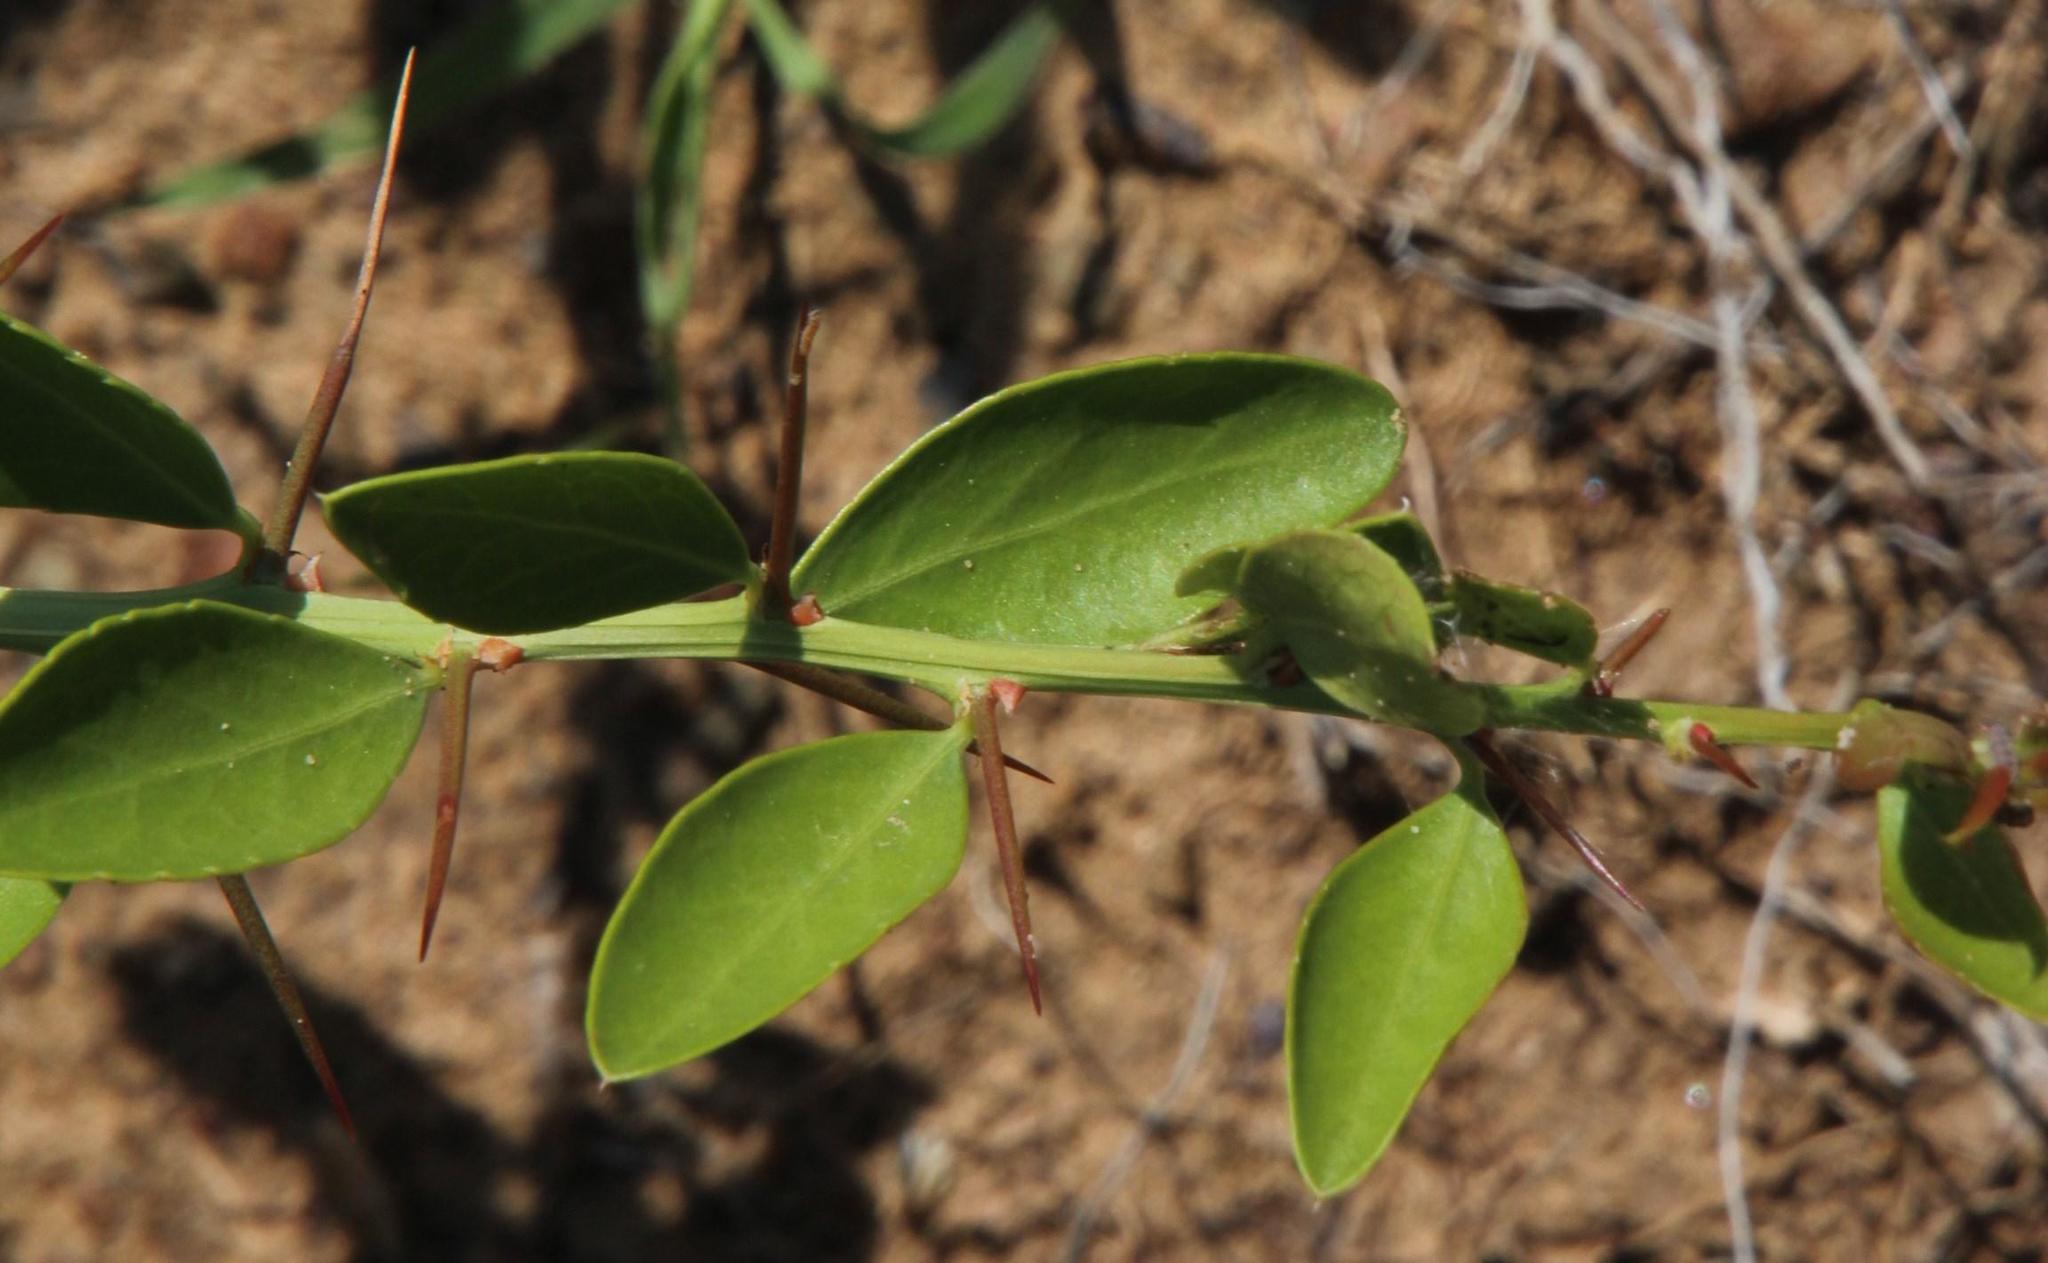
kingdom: Plantae
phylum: Tracheophyta
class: Magnoliopsida
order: Celastrales
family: Celastraceae
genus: Gymnosporia
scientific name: Gymnosporia buxifolia
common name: Common spike-thorn
